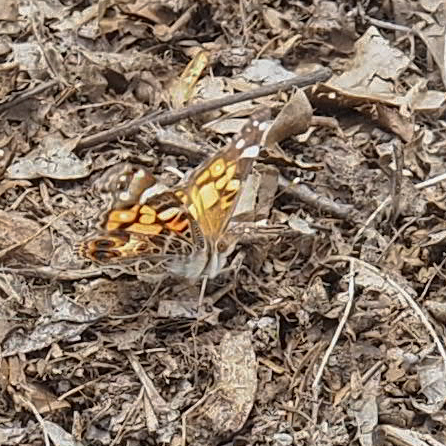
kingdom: Animalia
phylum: Arthropoda
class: Insecta
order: Lepidoptera
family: Nymphalidae
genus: Vanessa
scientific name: Vanessa virginiensis
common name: American lady
